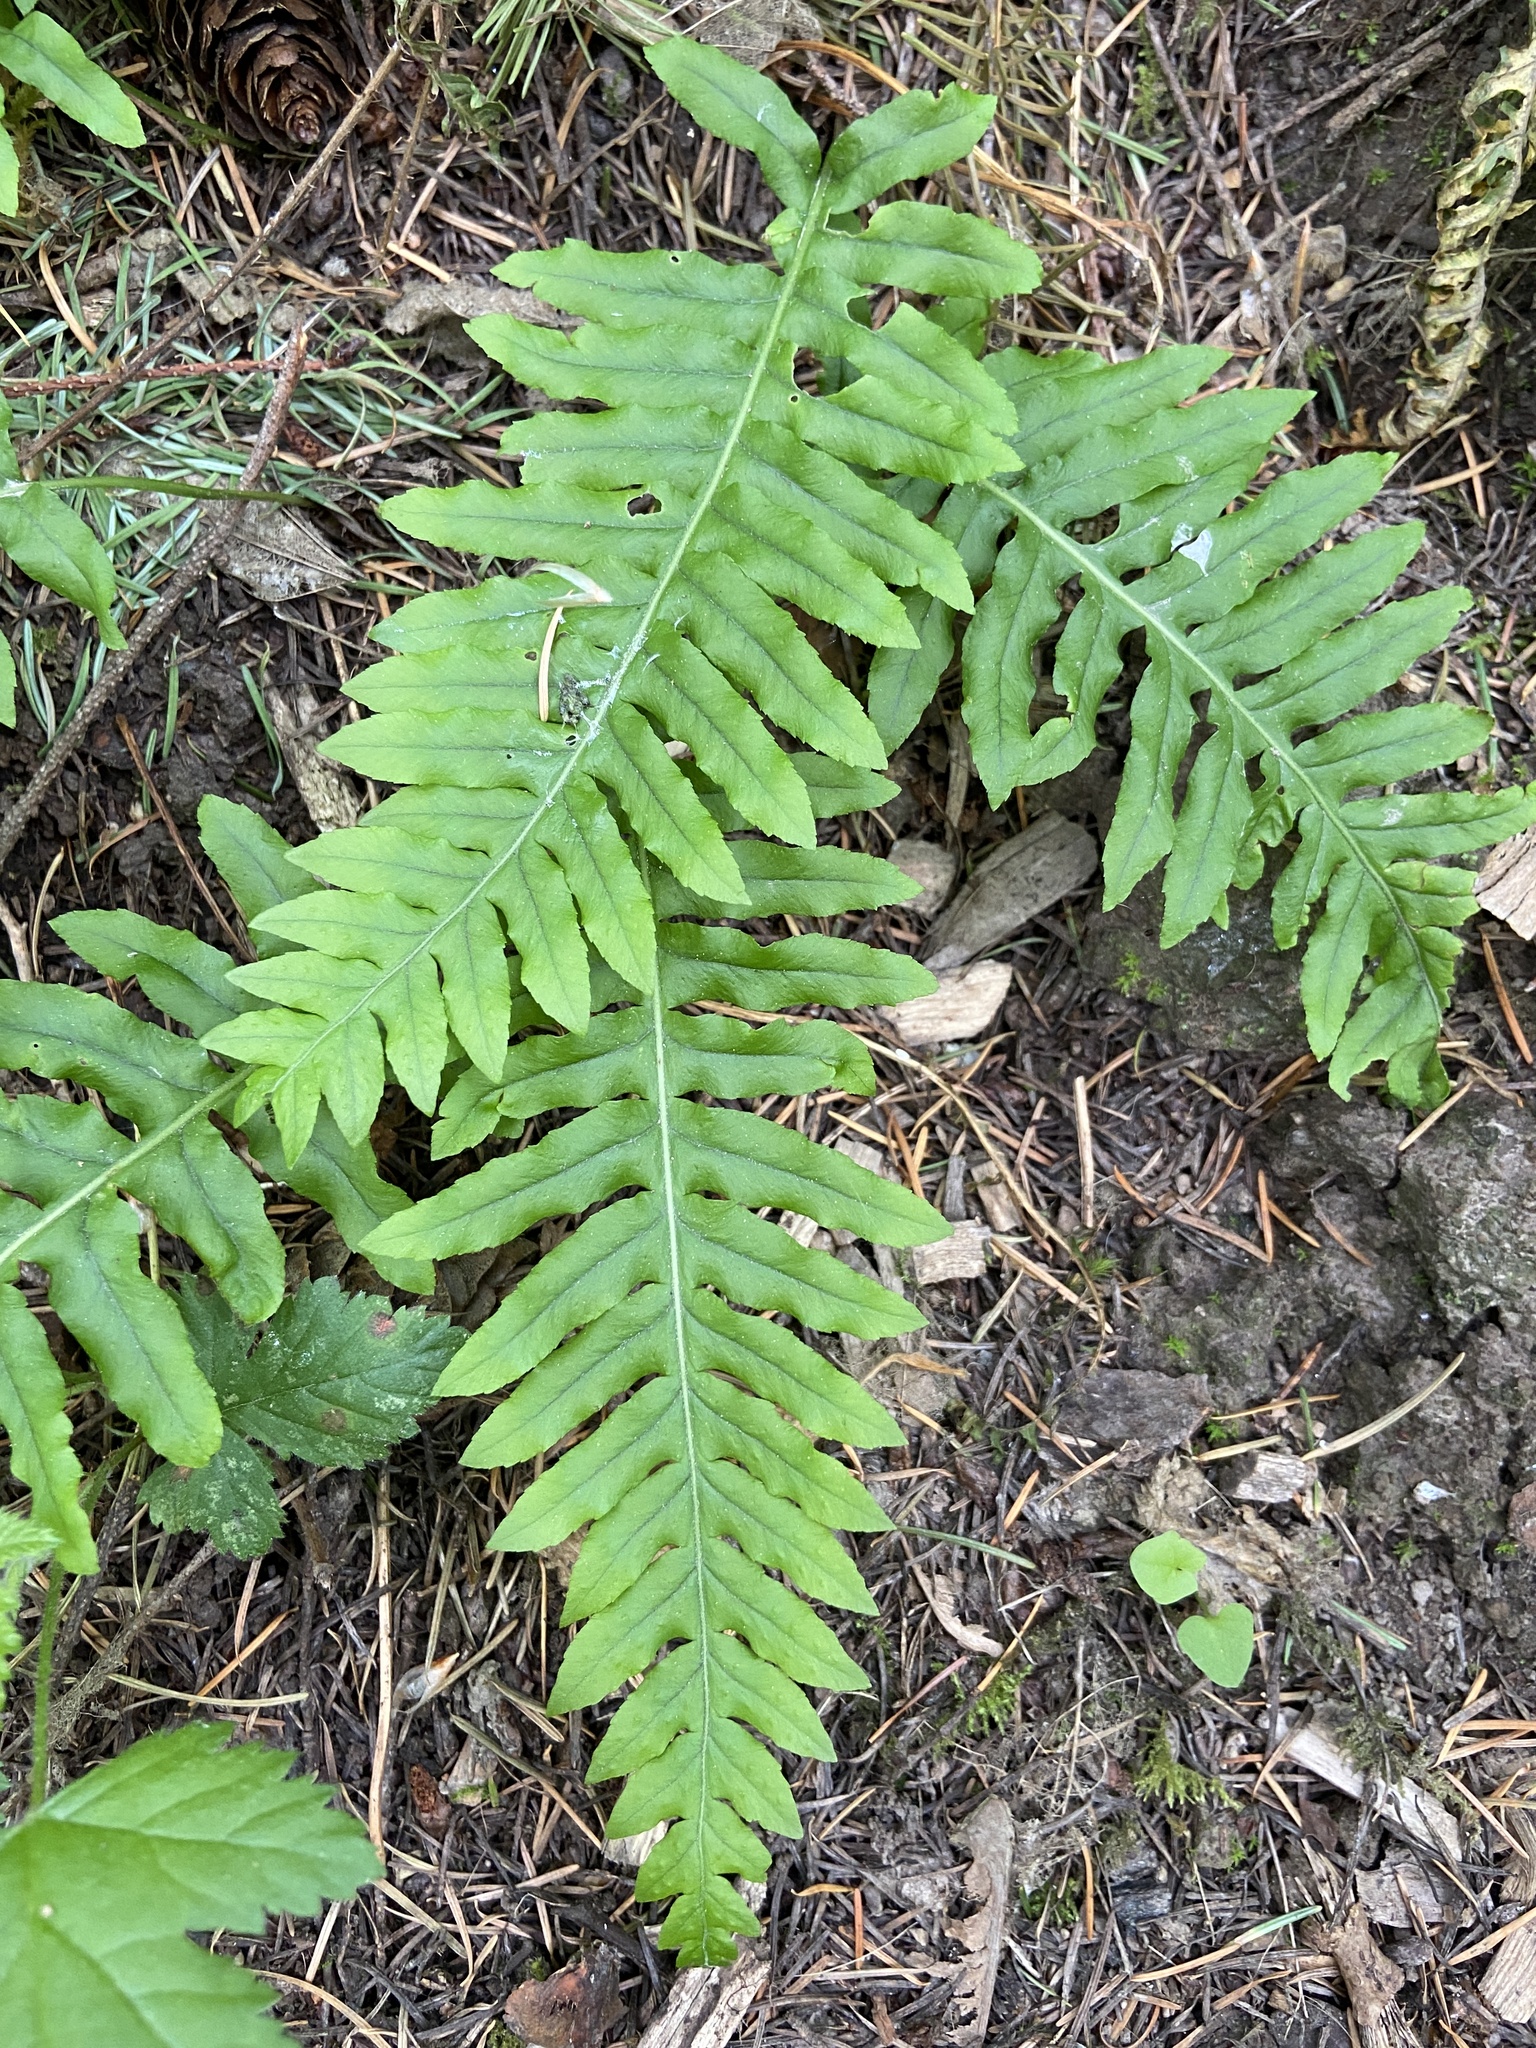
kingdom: Plantae
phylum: Tracheophyta
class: Polypodiopsida
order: Polypodiales
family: Polypodiaceae
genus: Polypodium
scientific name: Polypodium glycyrrhiza
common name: Licorice fern
